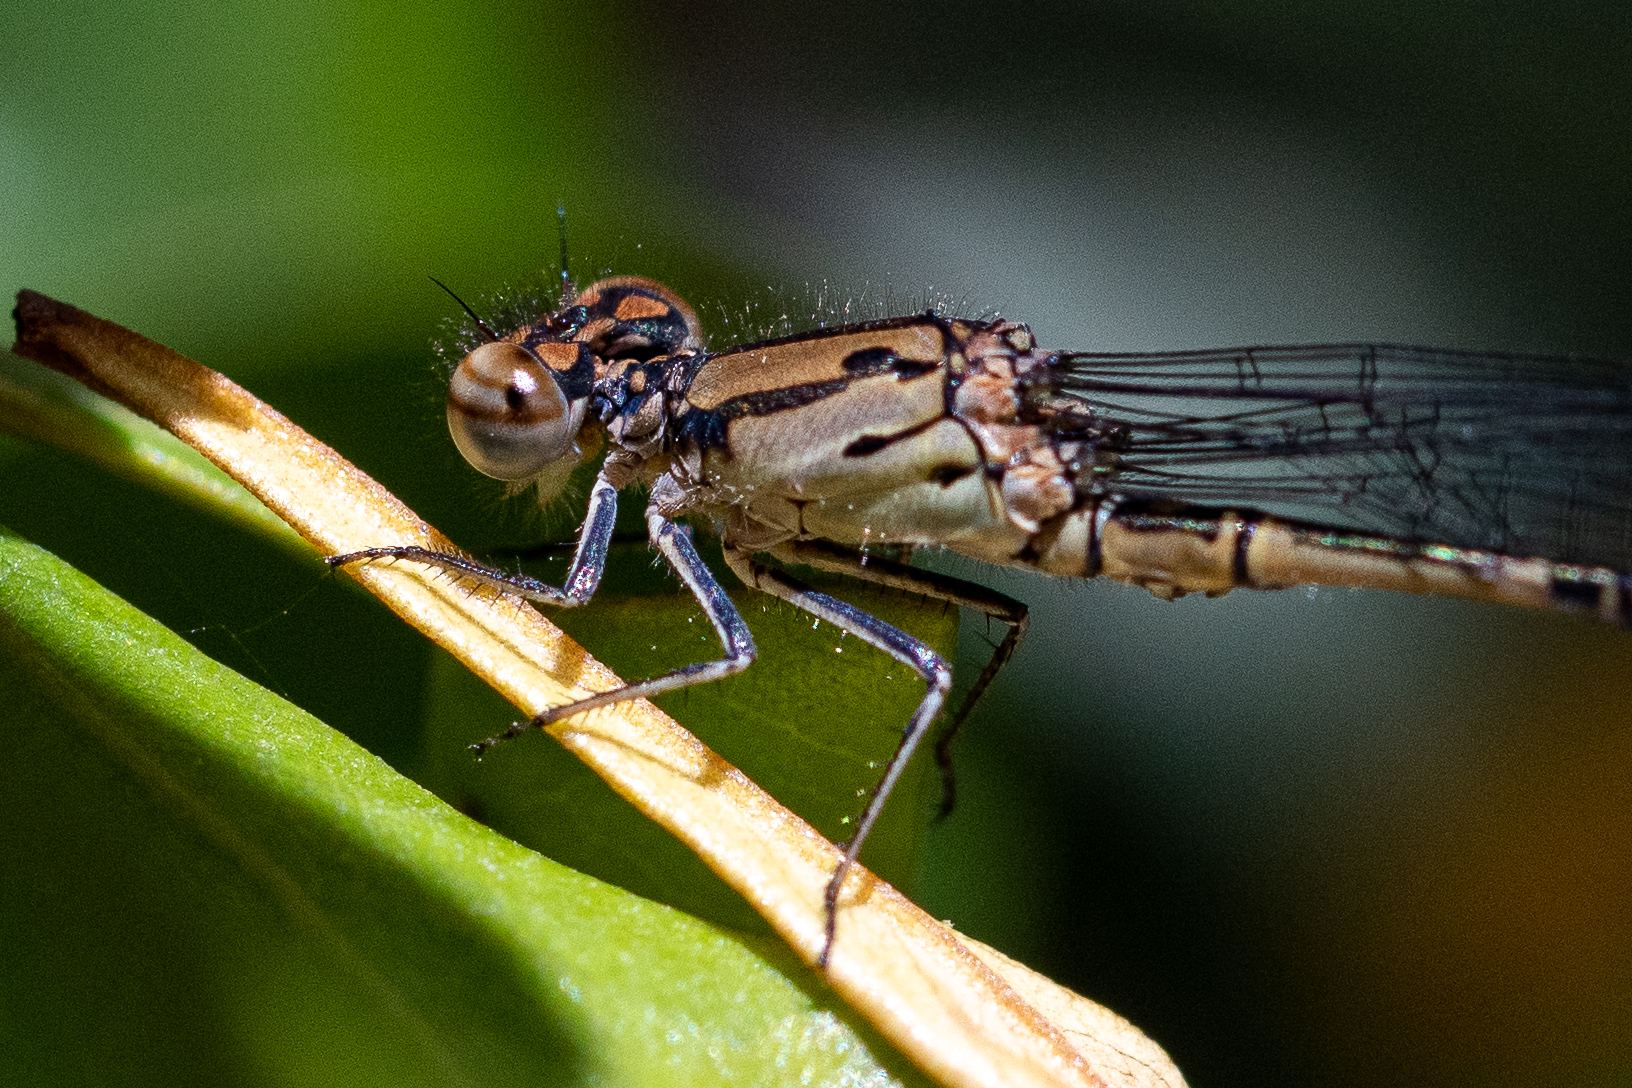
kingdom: Animalia
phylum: Arthropoda
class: Insecta
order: Odonata
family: Coenagrionidae
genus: Pseudagrion
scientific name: Pseudagrion massaicum
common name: Masai sprite
